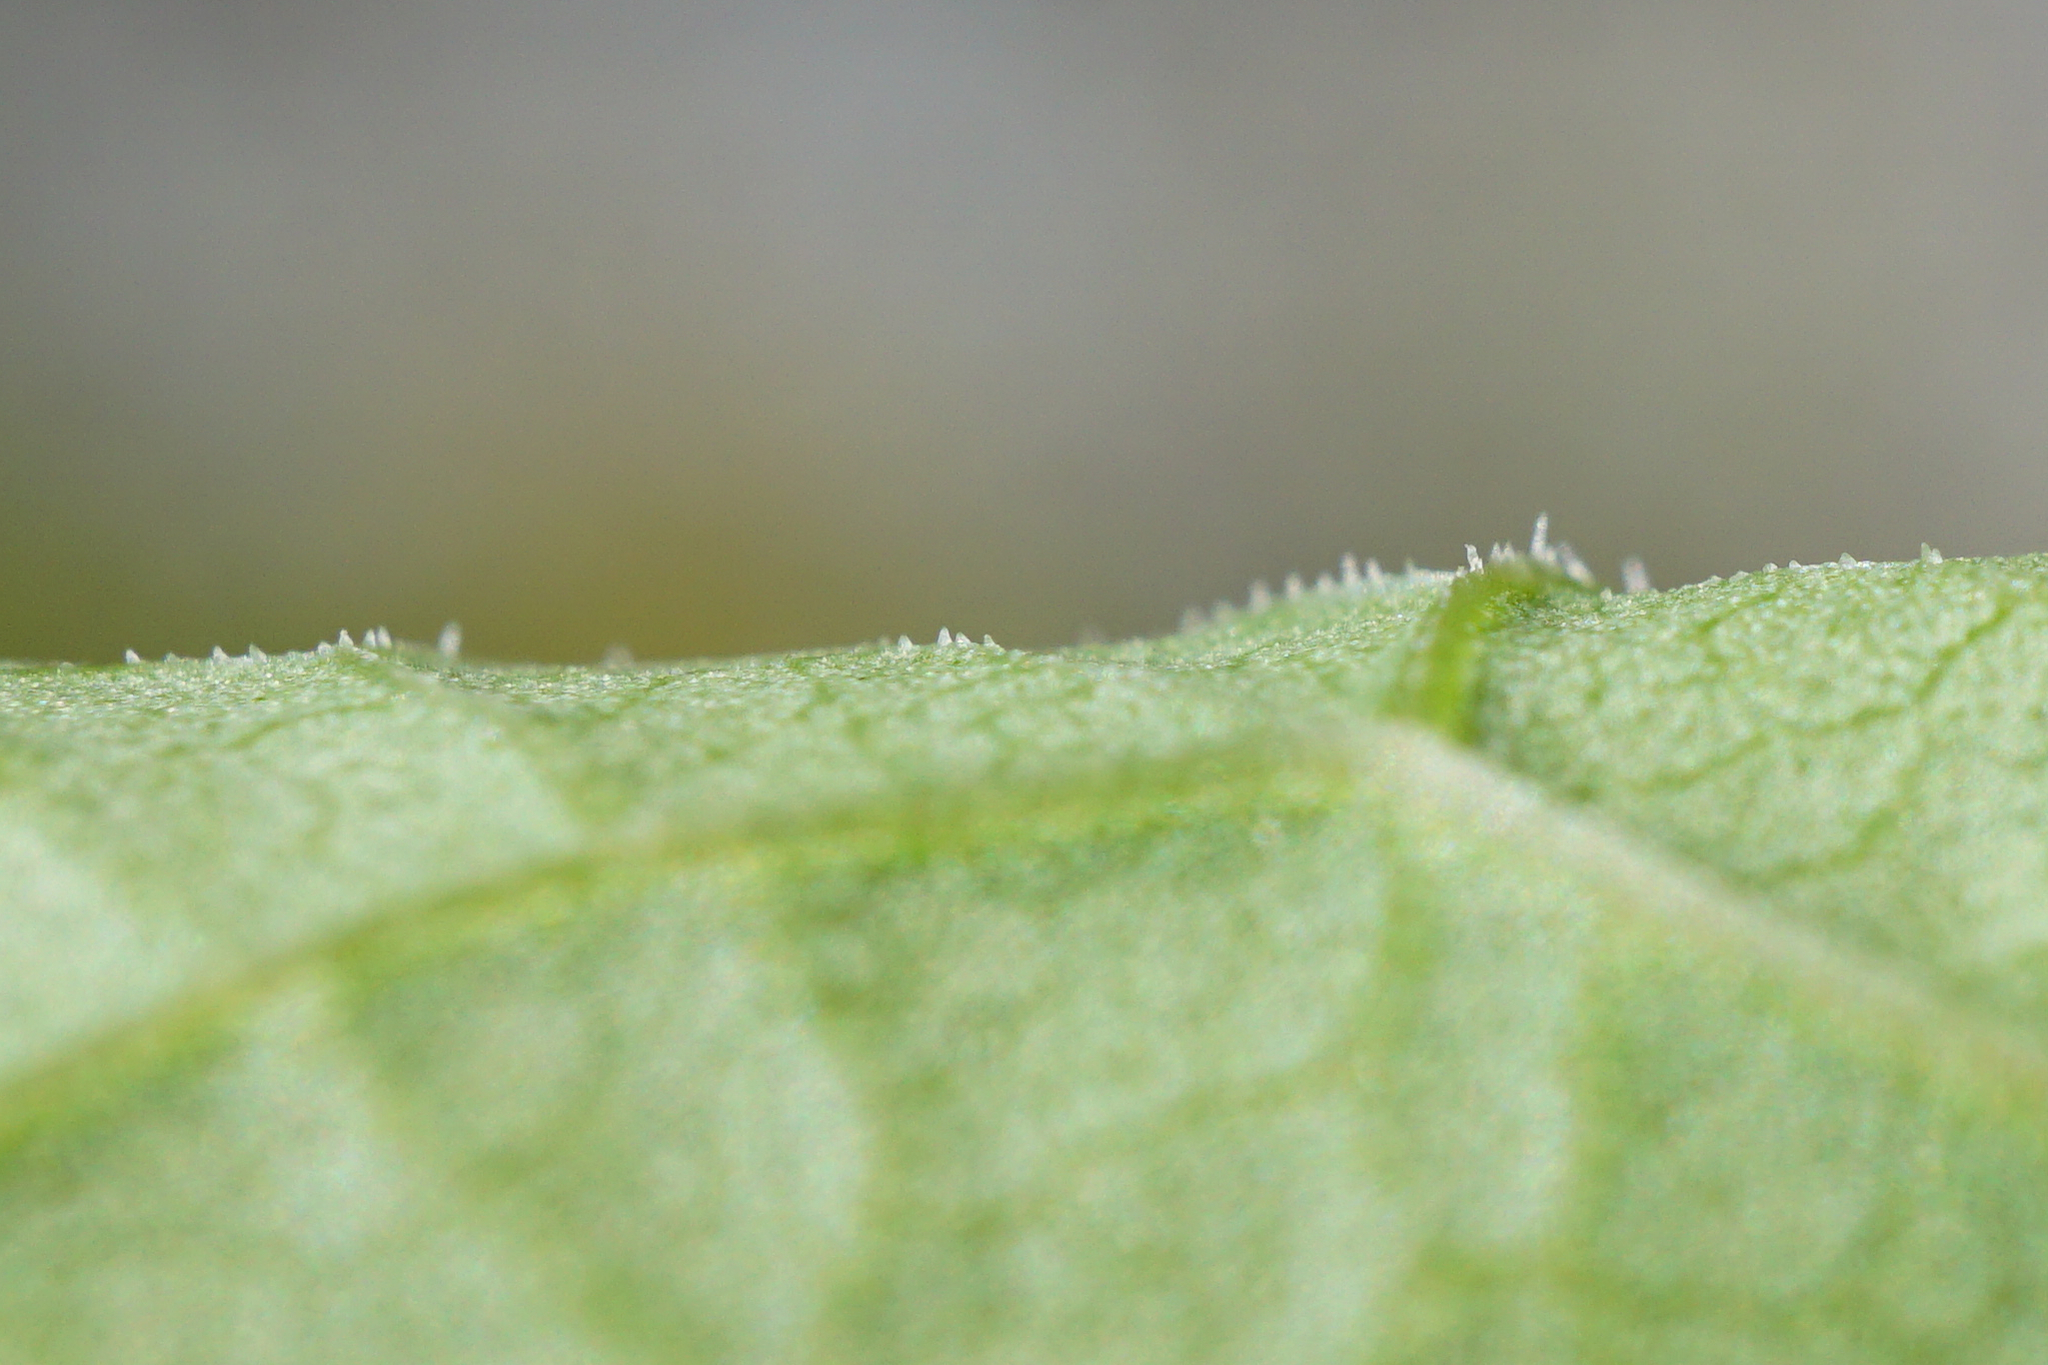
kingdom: Plantae
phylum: Tracheophyta
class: Magnoliopsida
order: Caryophyllales
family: Polygonaceae
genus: Reynoutria
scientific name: Reynoutria bohemica
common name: Bohemian knotweed
